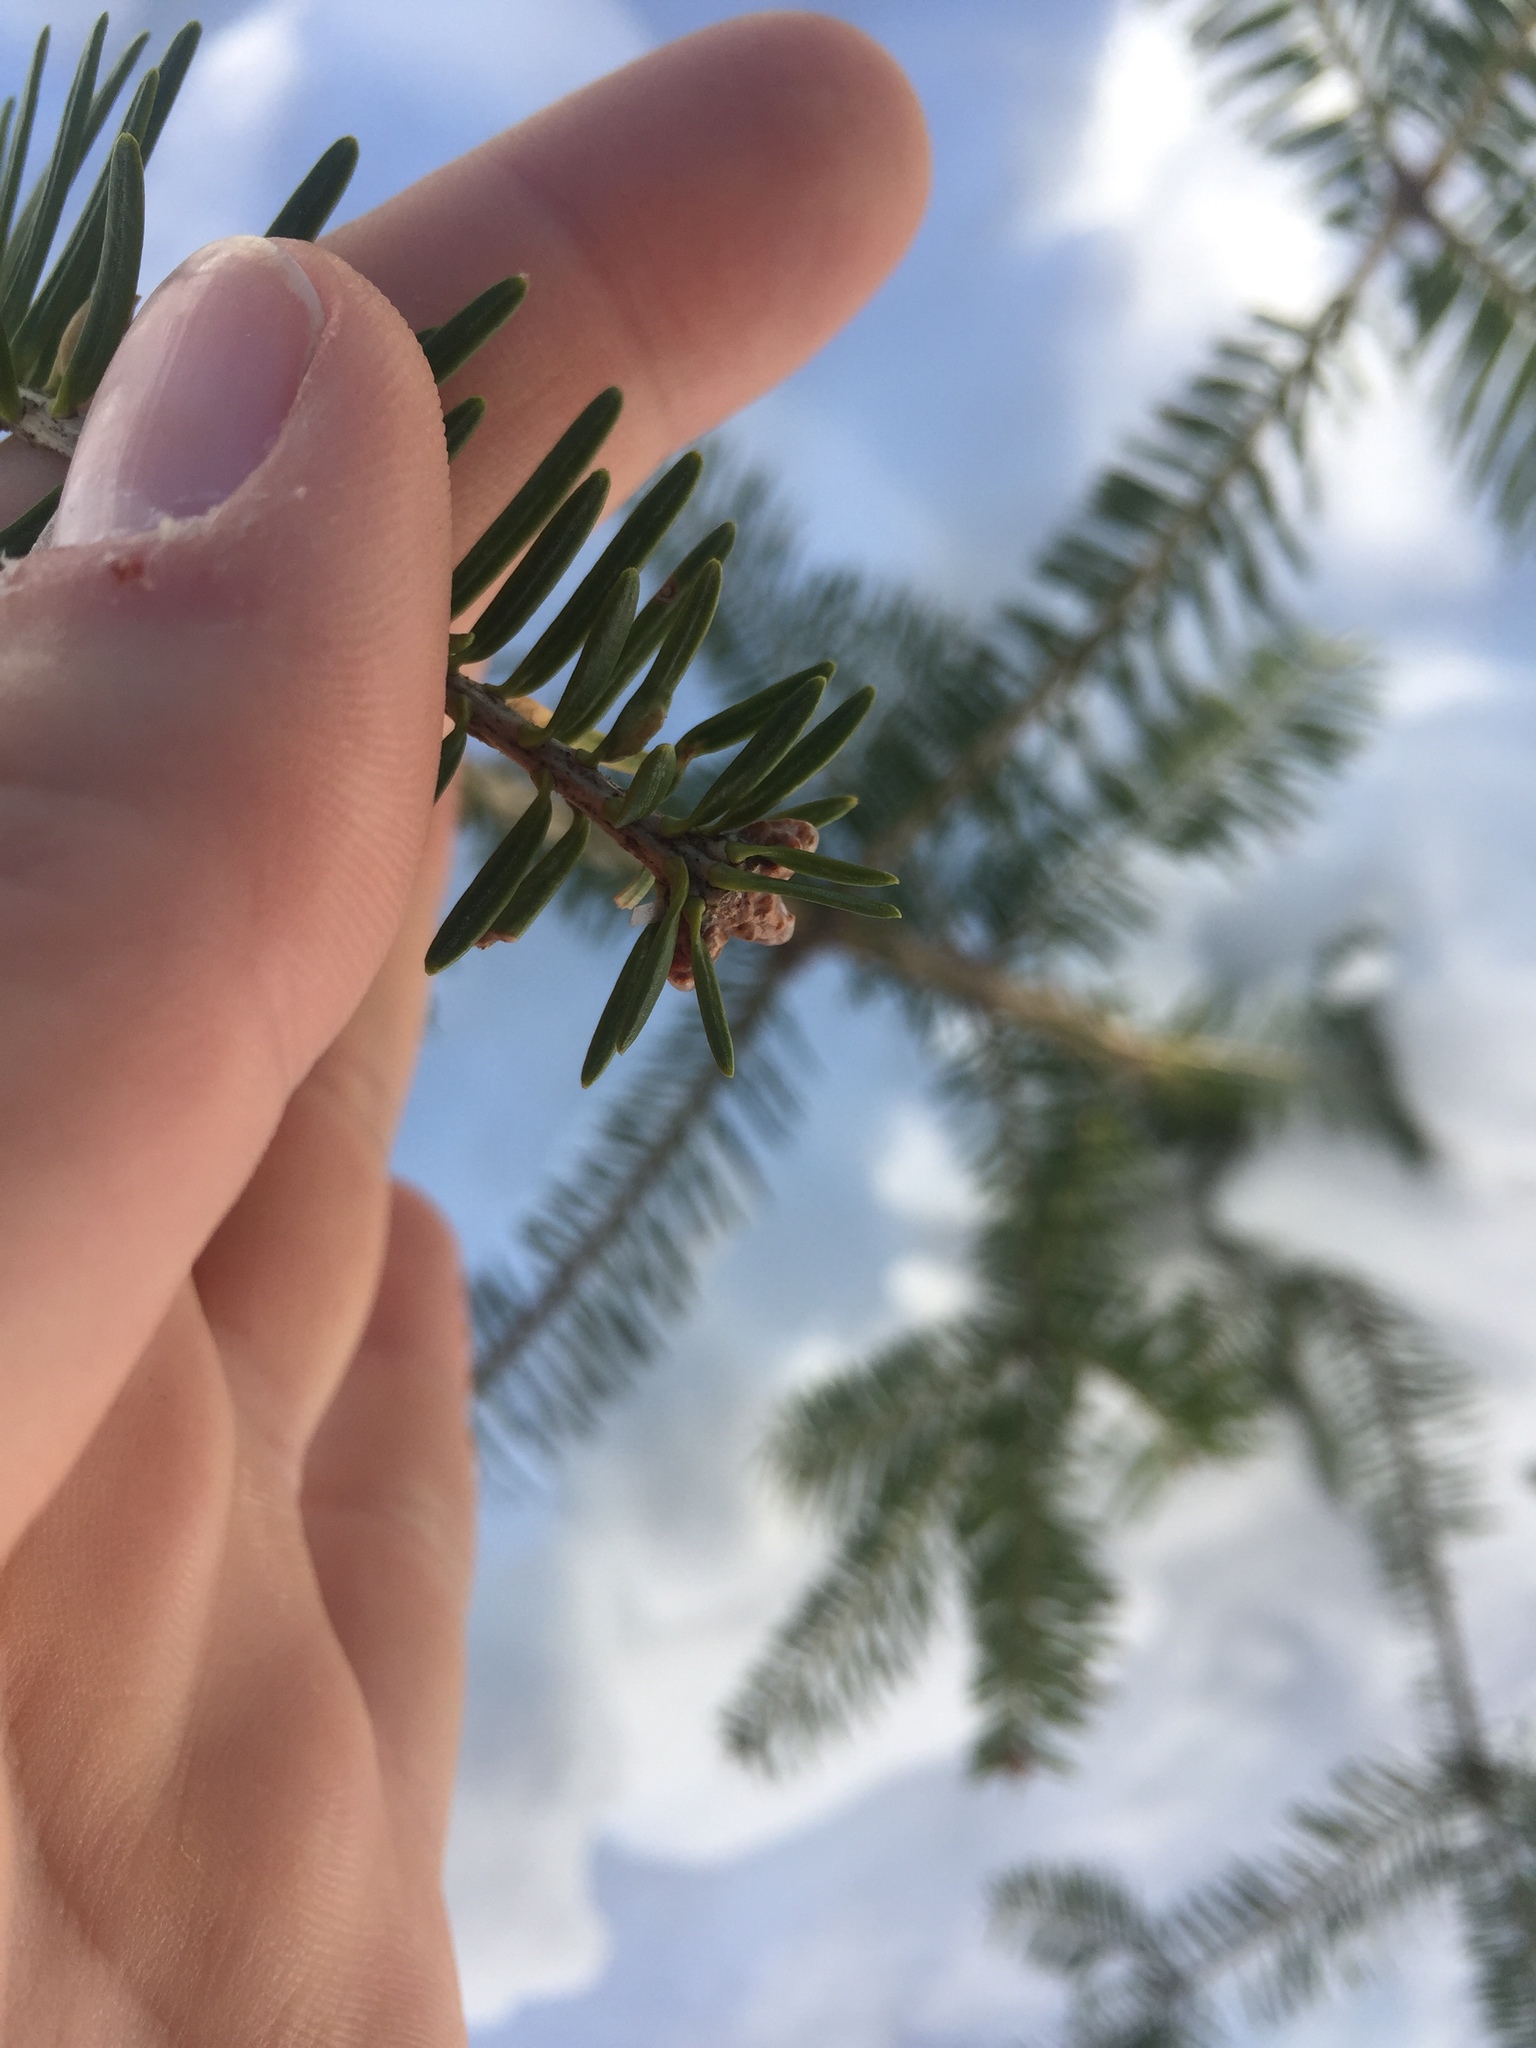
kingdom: Plantae
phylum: Tracheophyta
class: Pinopsida
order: Pinales
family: Pinaceae
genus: Abies
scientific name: Abies balsamea
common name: Balsam fir
